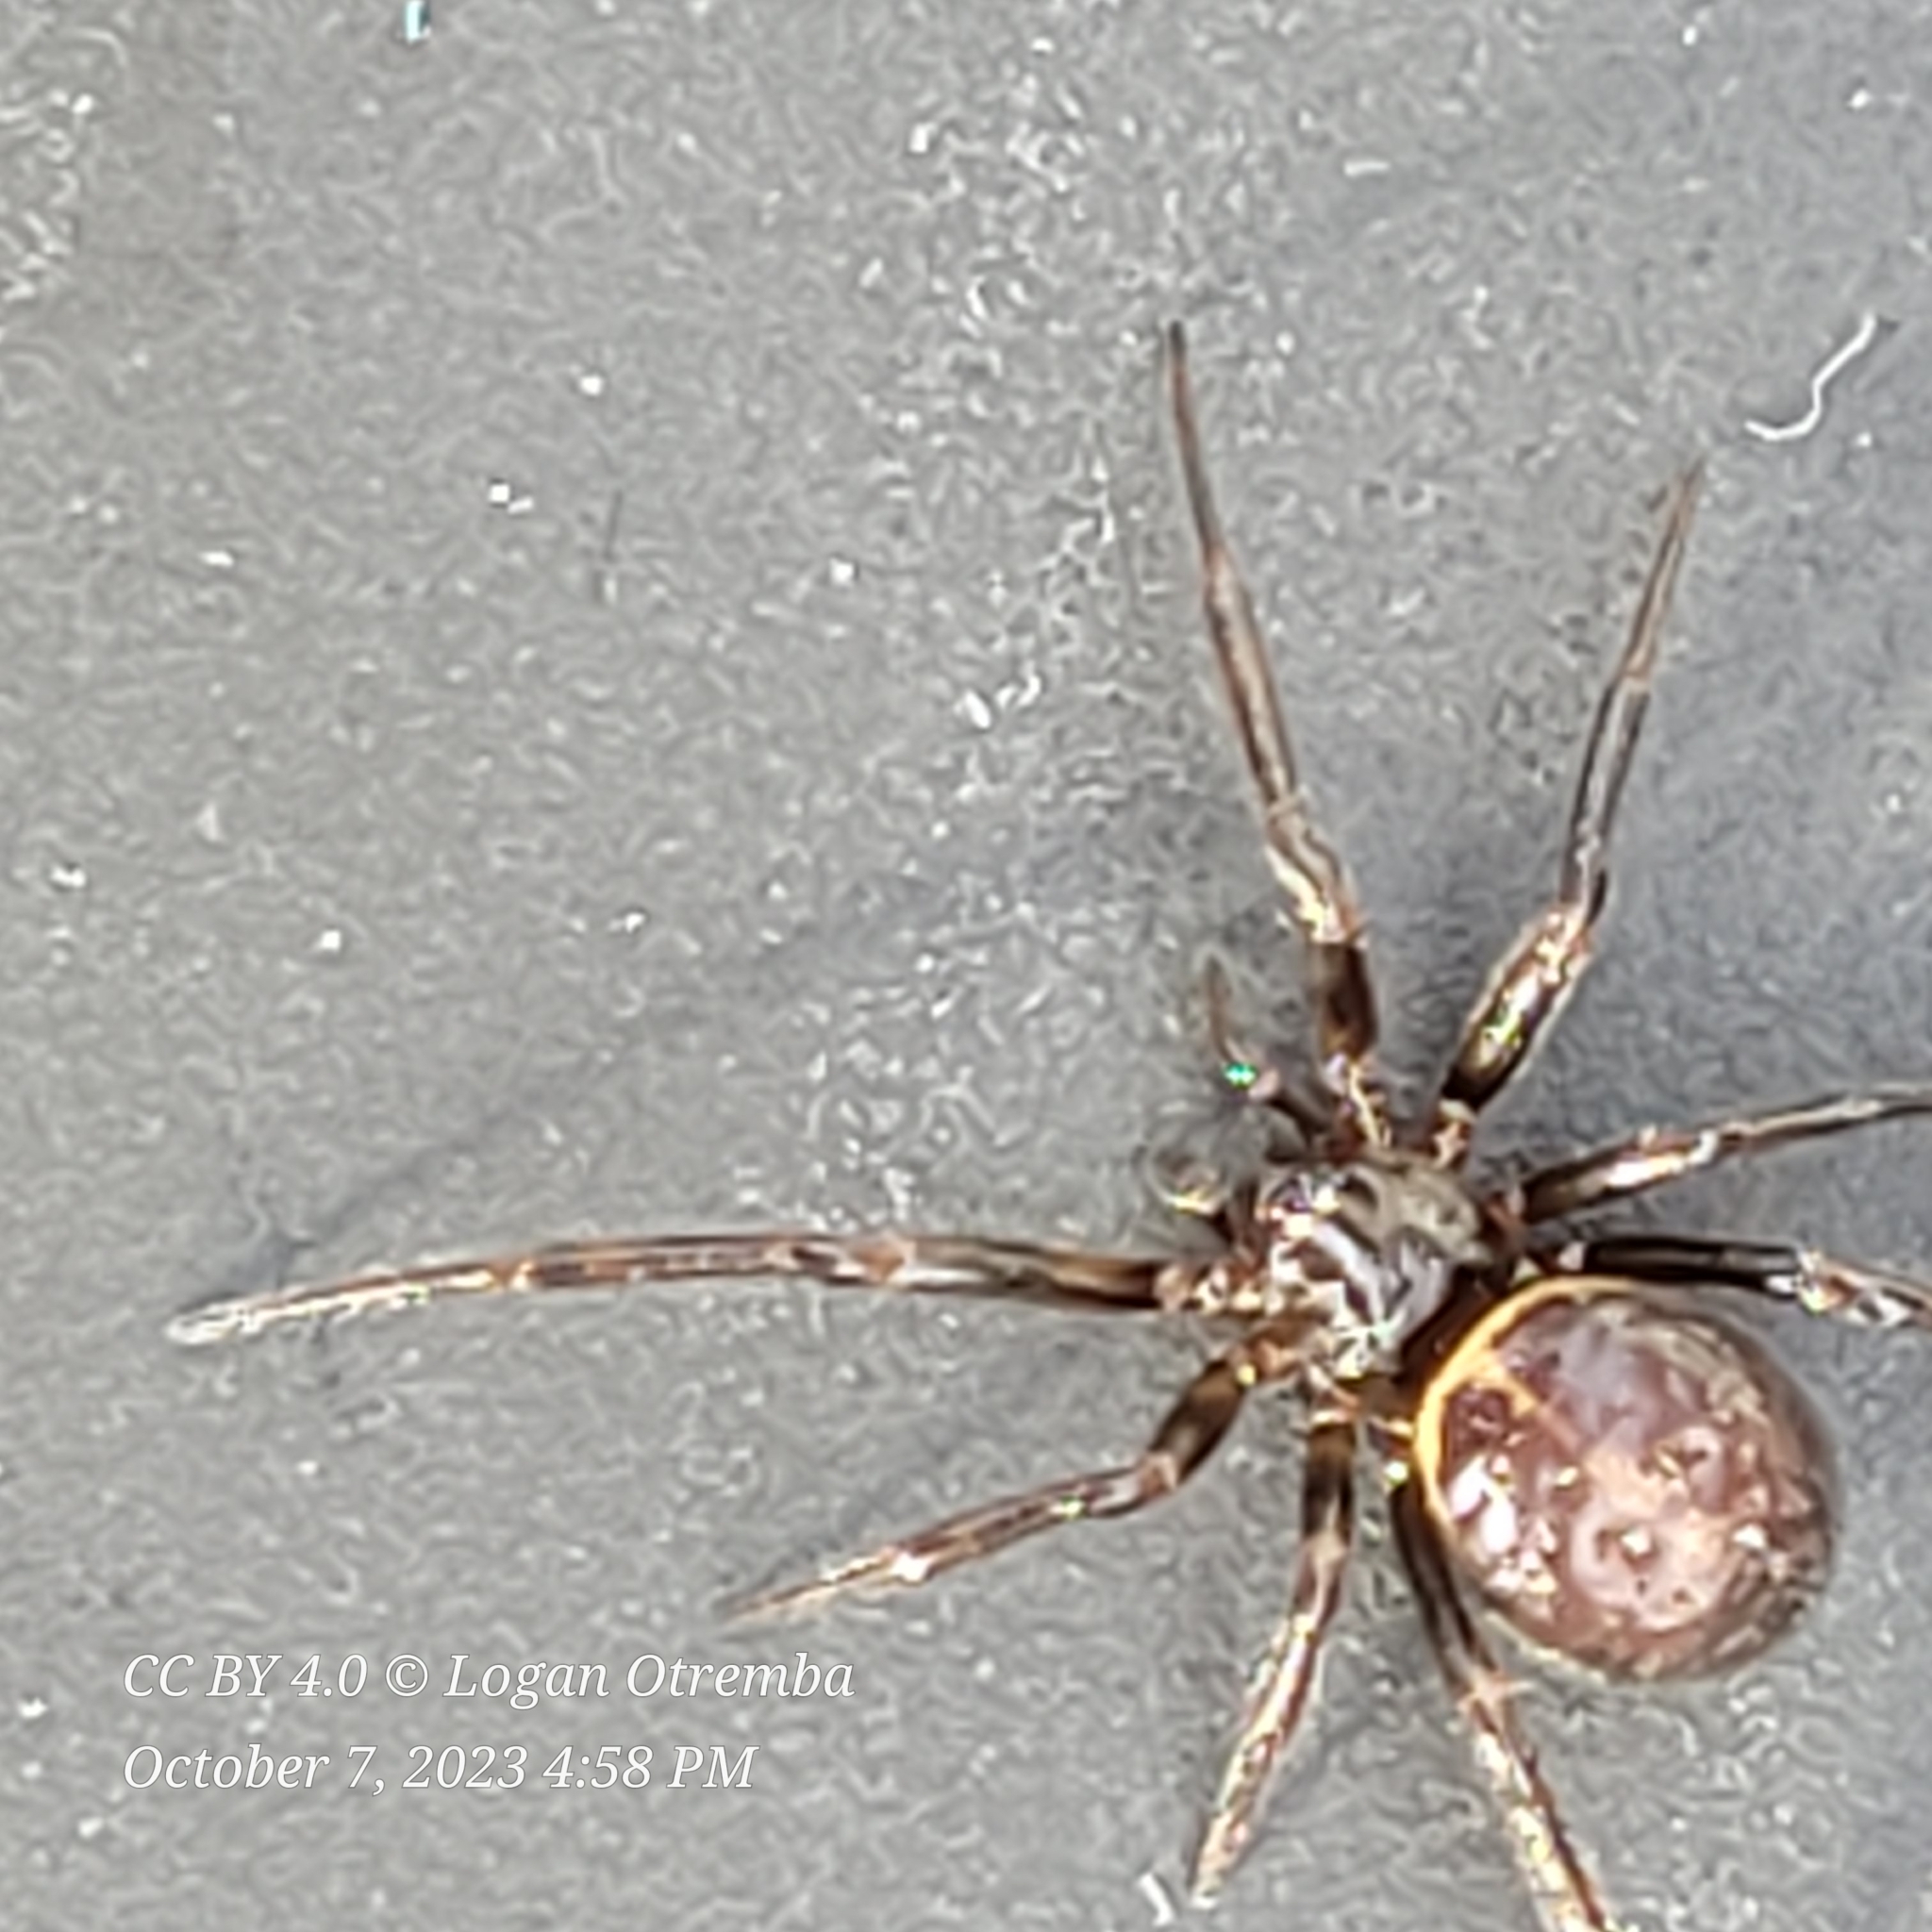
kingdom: Animalia
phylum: Arthropoda
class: Arachnida
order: Araneae
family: Theridiidae
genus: Steatoda
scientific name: Steatoda borealis
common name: Boreal combfoot
